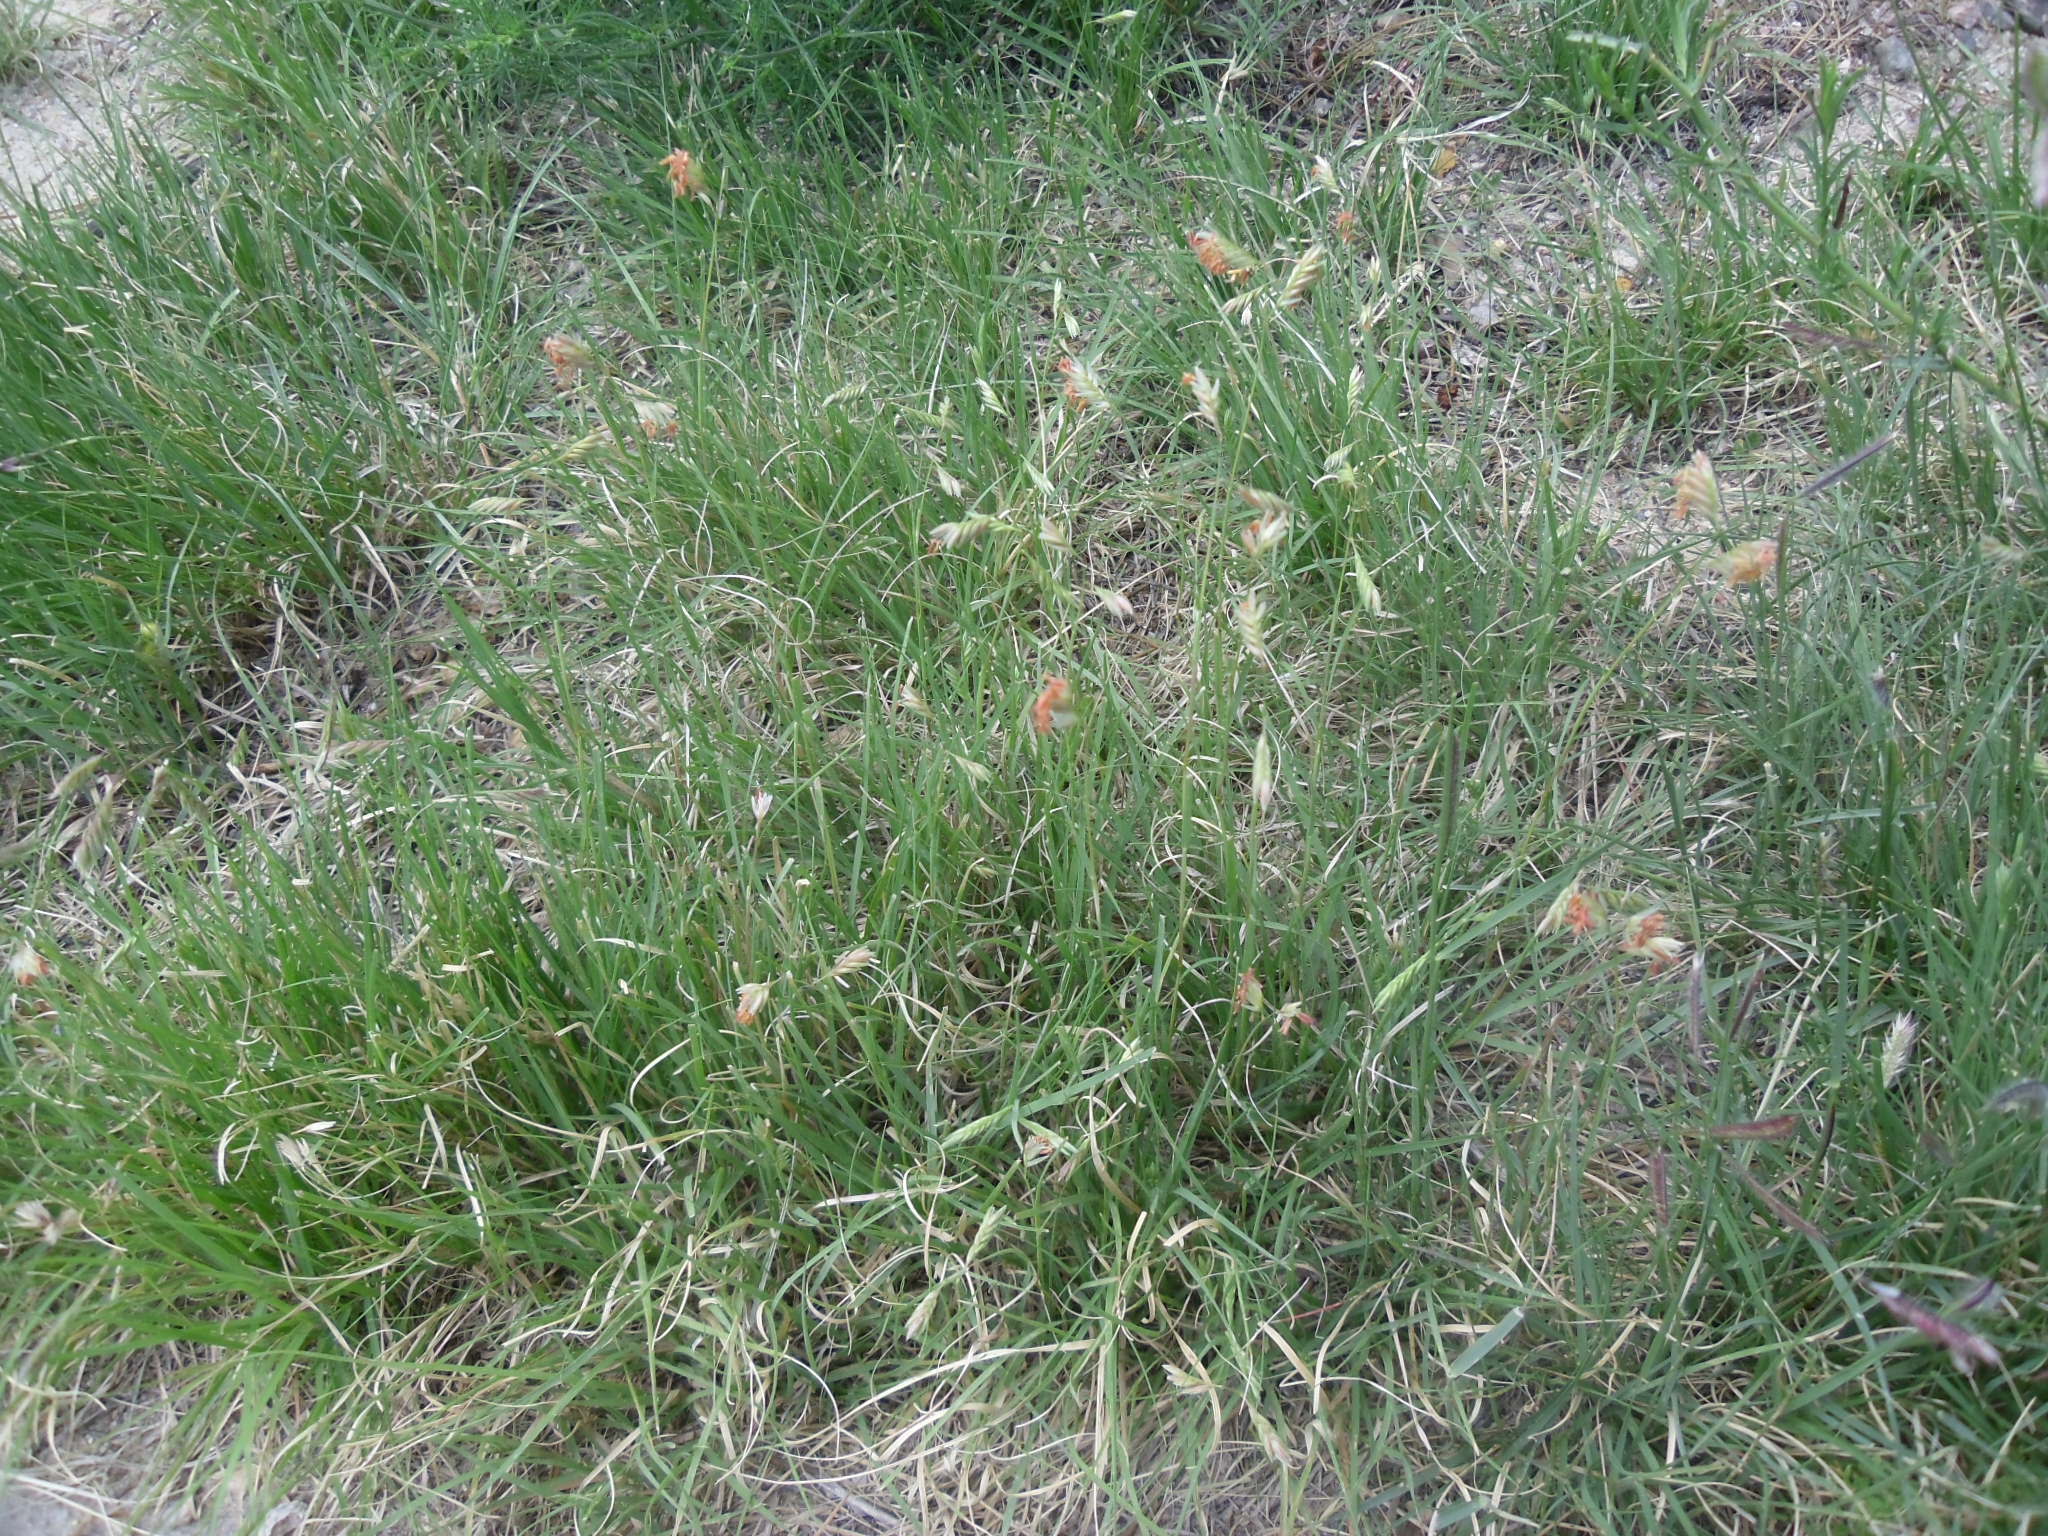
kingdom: Plantae
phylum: Tracheophyta
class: Liliopsida
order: Poales
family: Poaceae
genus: Bouteloua
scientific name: Bouteloua dactyloides
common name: Buffalo grass
